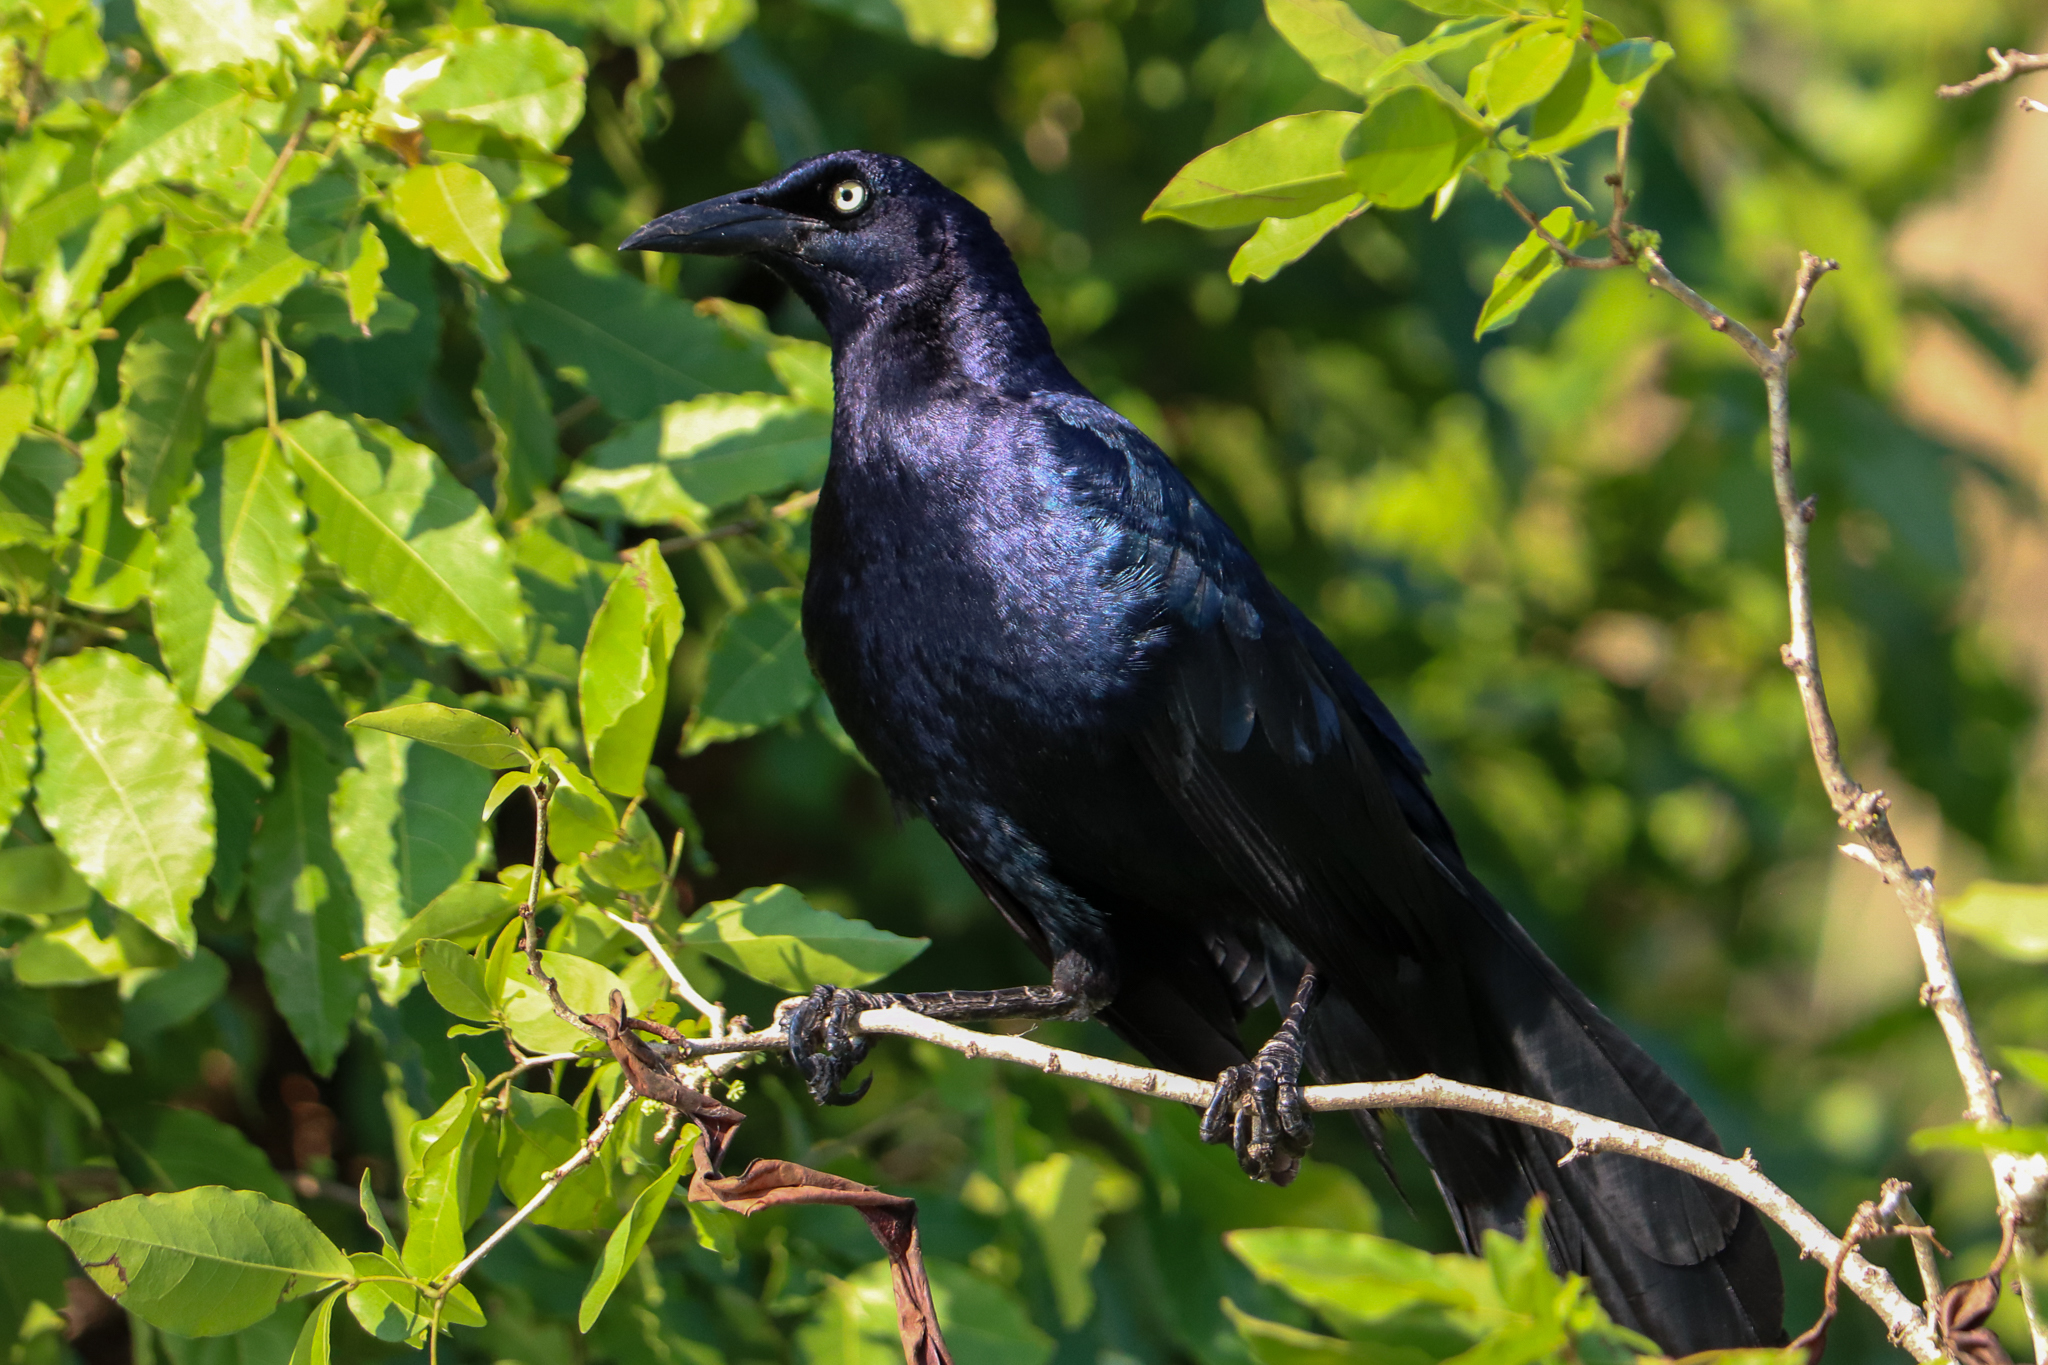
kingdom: Animalia
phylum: Chordata
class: Aves
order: Passeriformes
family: Icteridae
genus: Quiscalus
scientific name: Quiscalus mexicanus
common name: Great-tailed grackle
